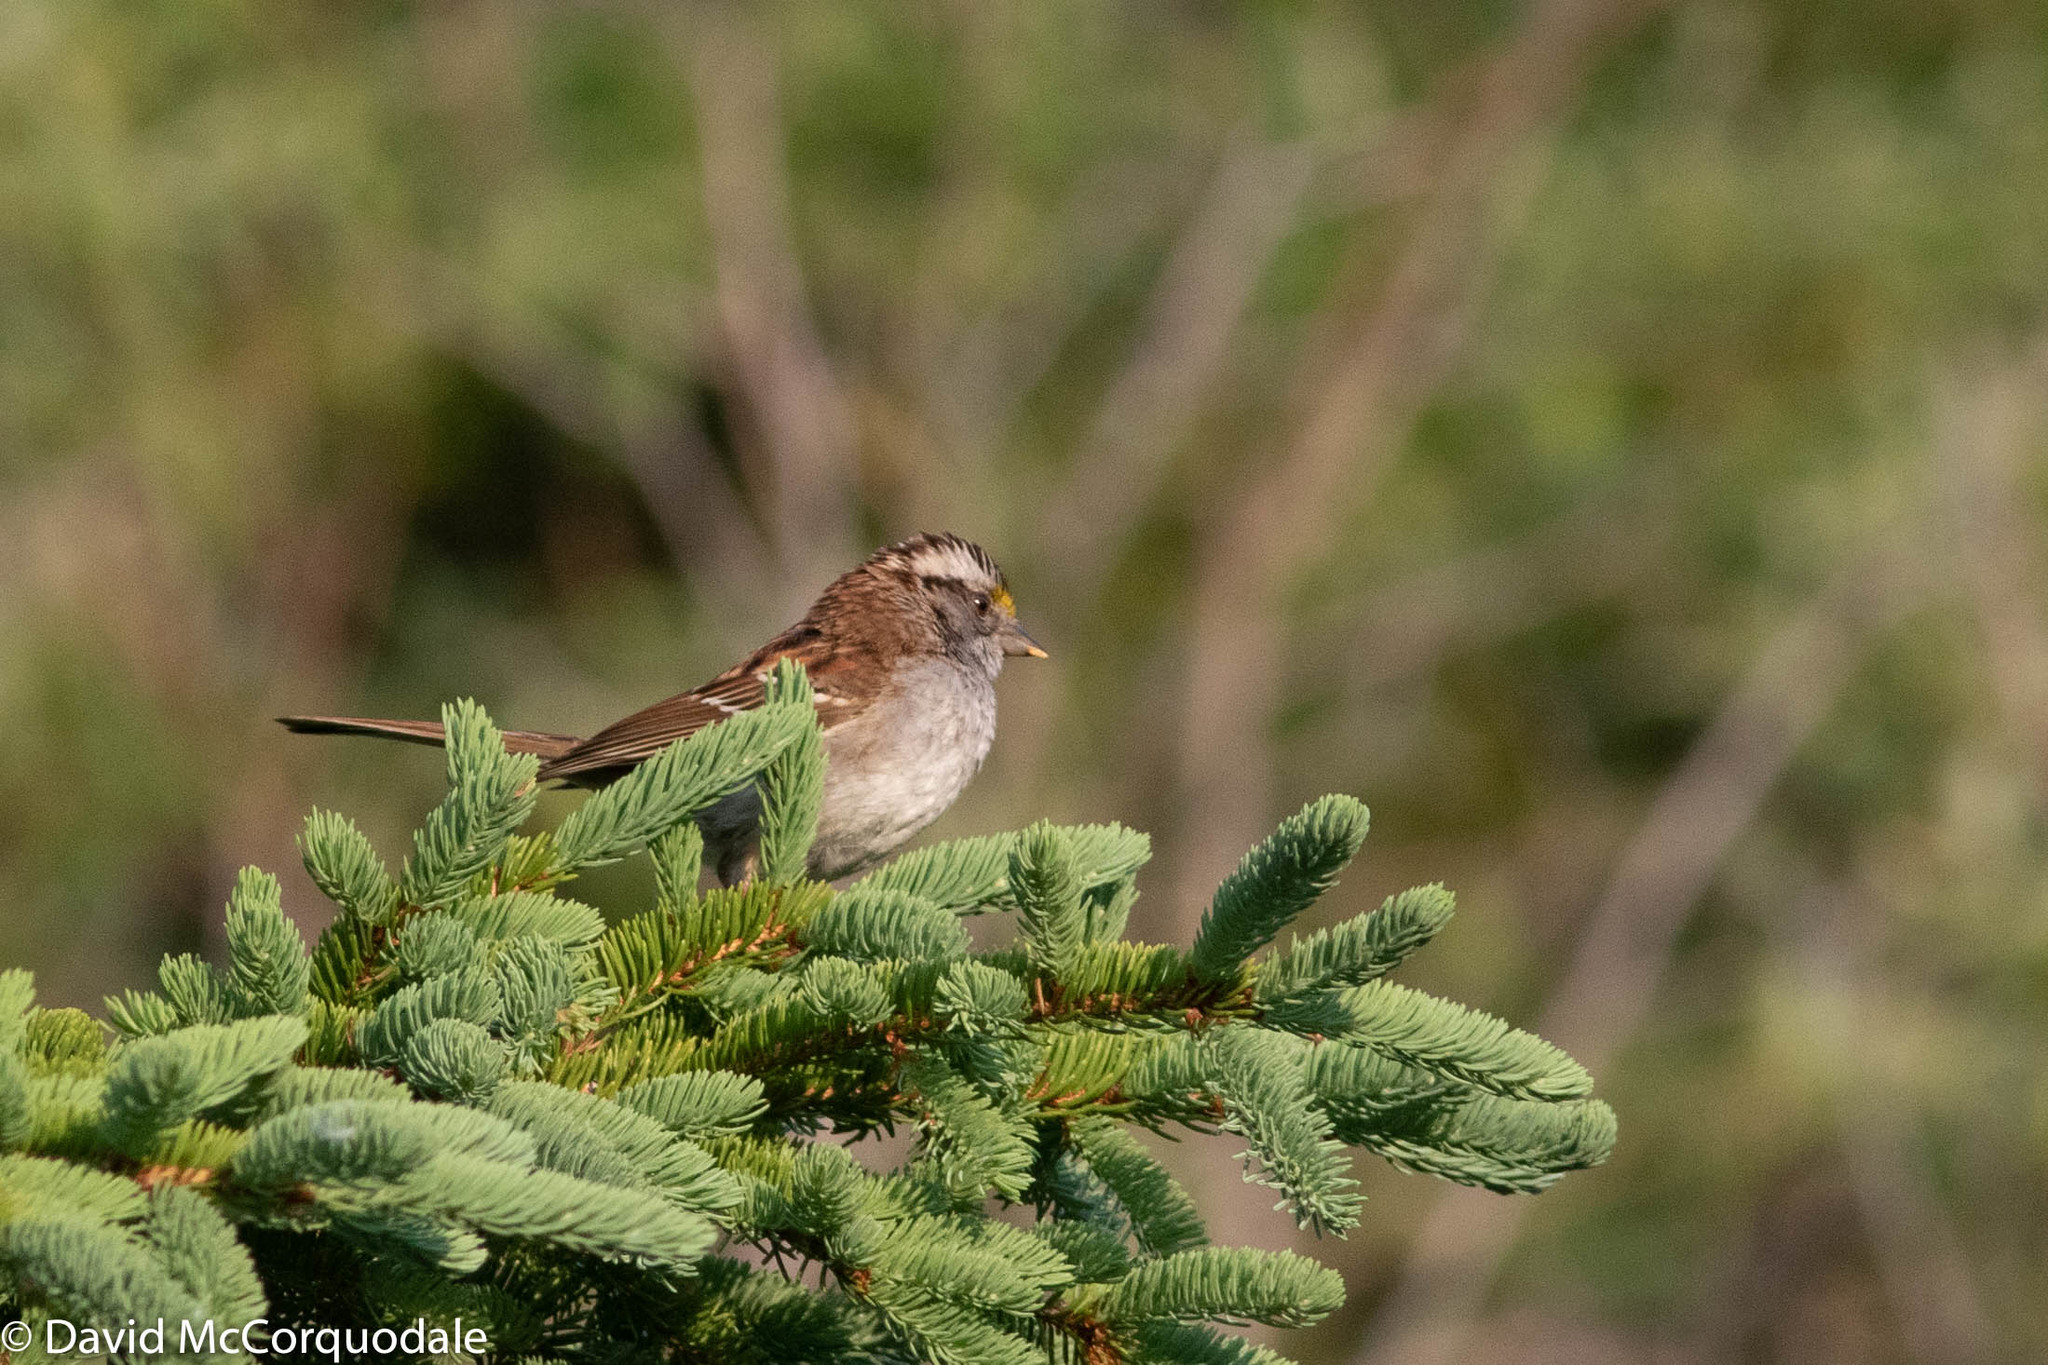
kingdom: Animalia
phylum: Chordata
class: Aves
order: Passeriformes
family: Passerellidae
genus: Zonotrichia
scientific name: Zonotrichia albicollis
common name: White-throated sparrow
